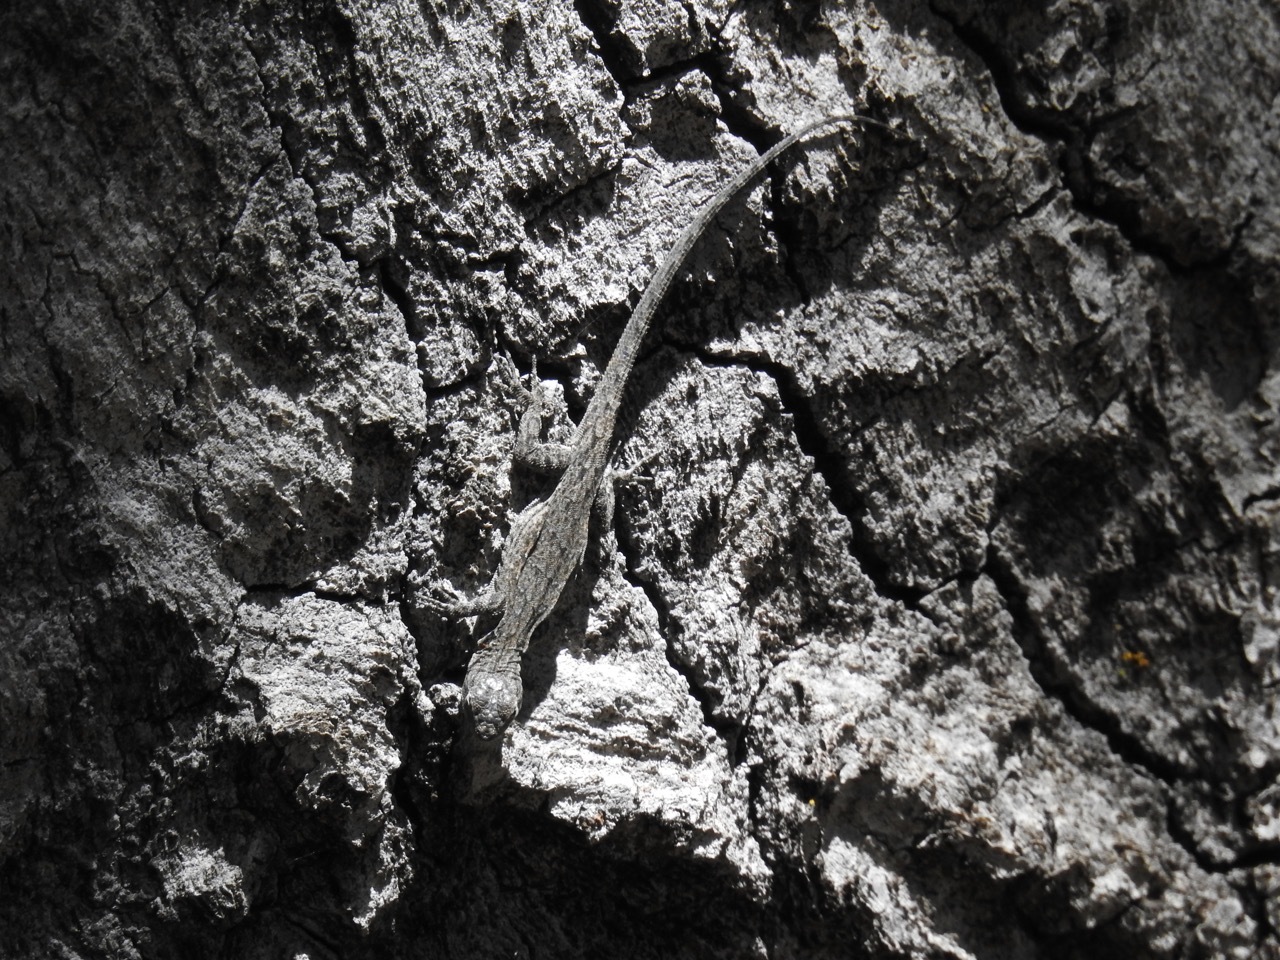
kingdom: Animalia
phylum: Chordata
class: Squamata
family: Phrynosomatidae
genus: Urosaurus
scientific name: Urosaurus nigricauda
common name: Baja california brush lizard
